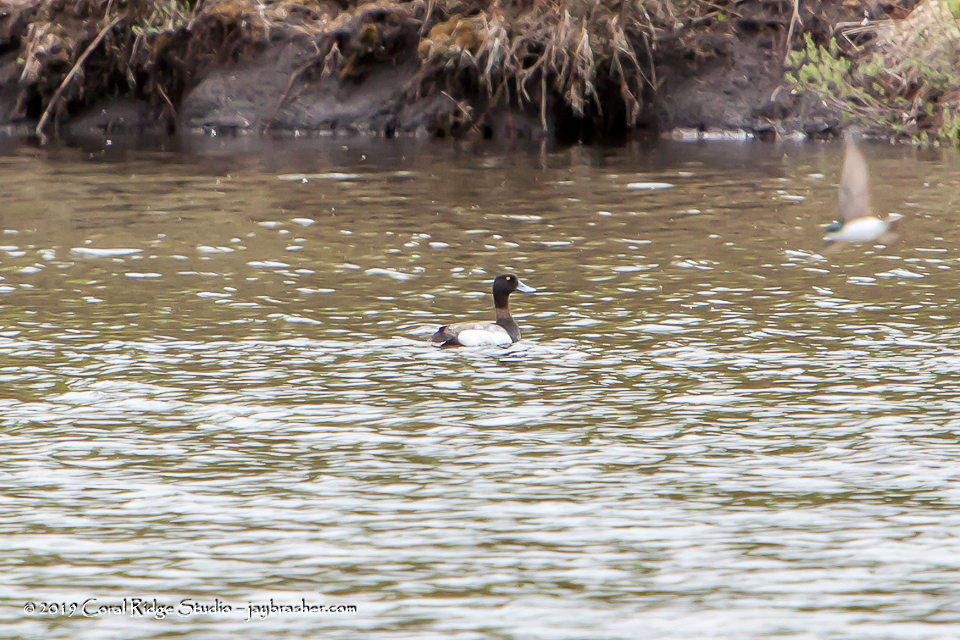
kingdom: Animalia
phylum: Chordata
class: Aves
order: Anseriformes
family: Anatidae
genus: Aythya
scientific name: Aythya affinis
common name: Lesser scaup
